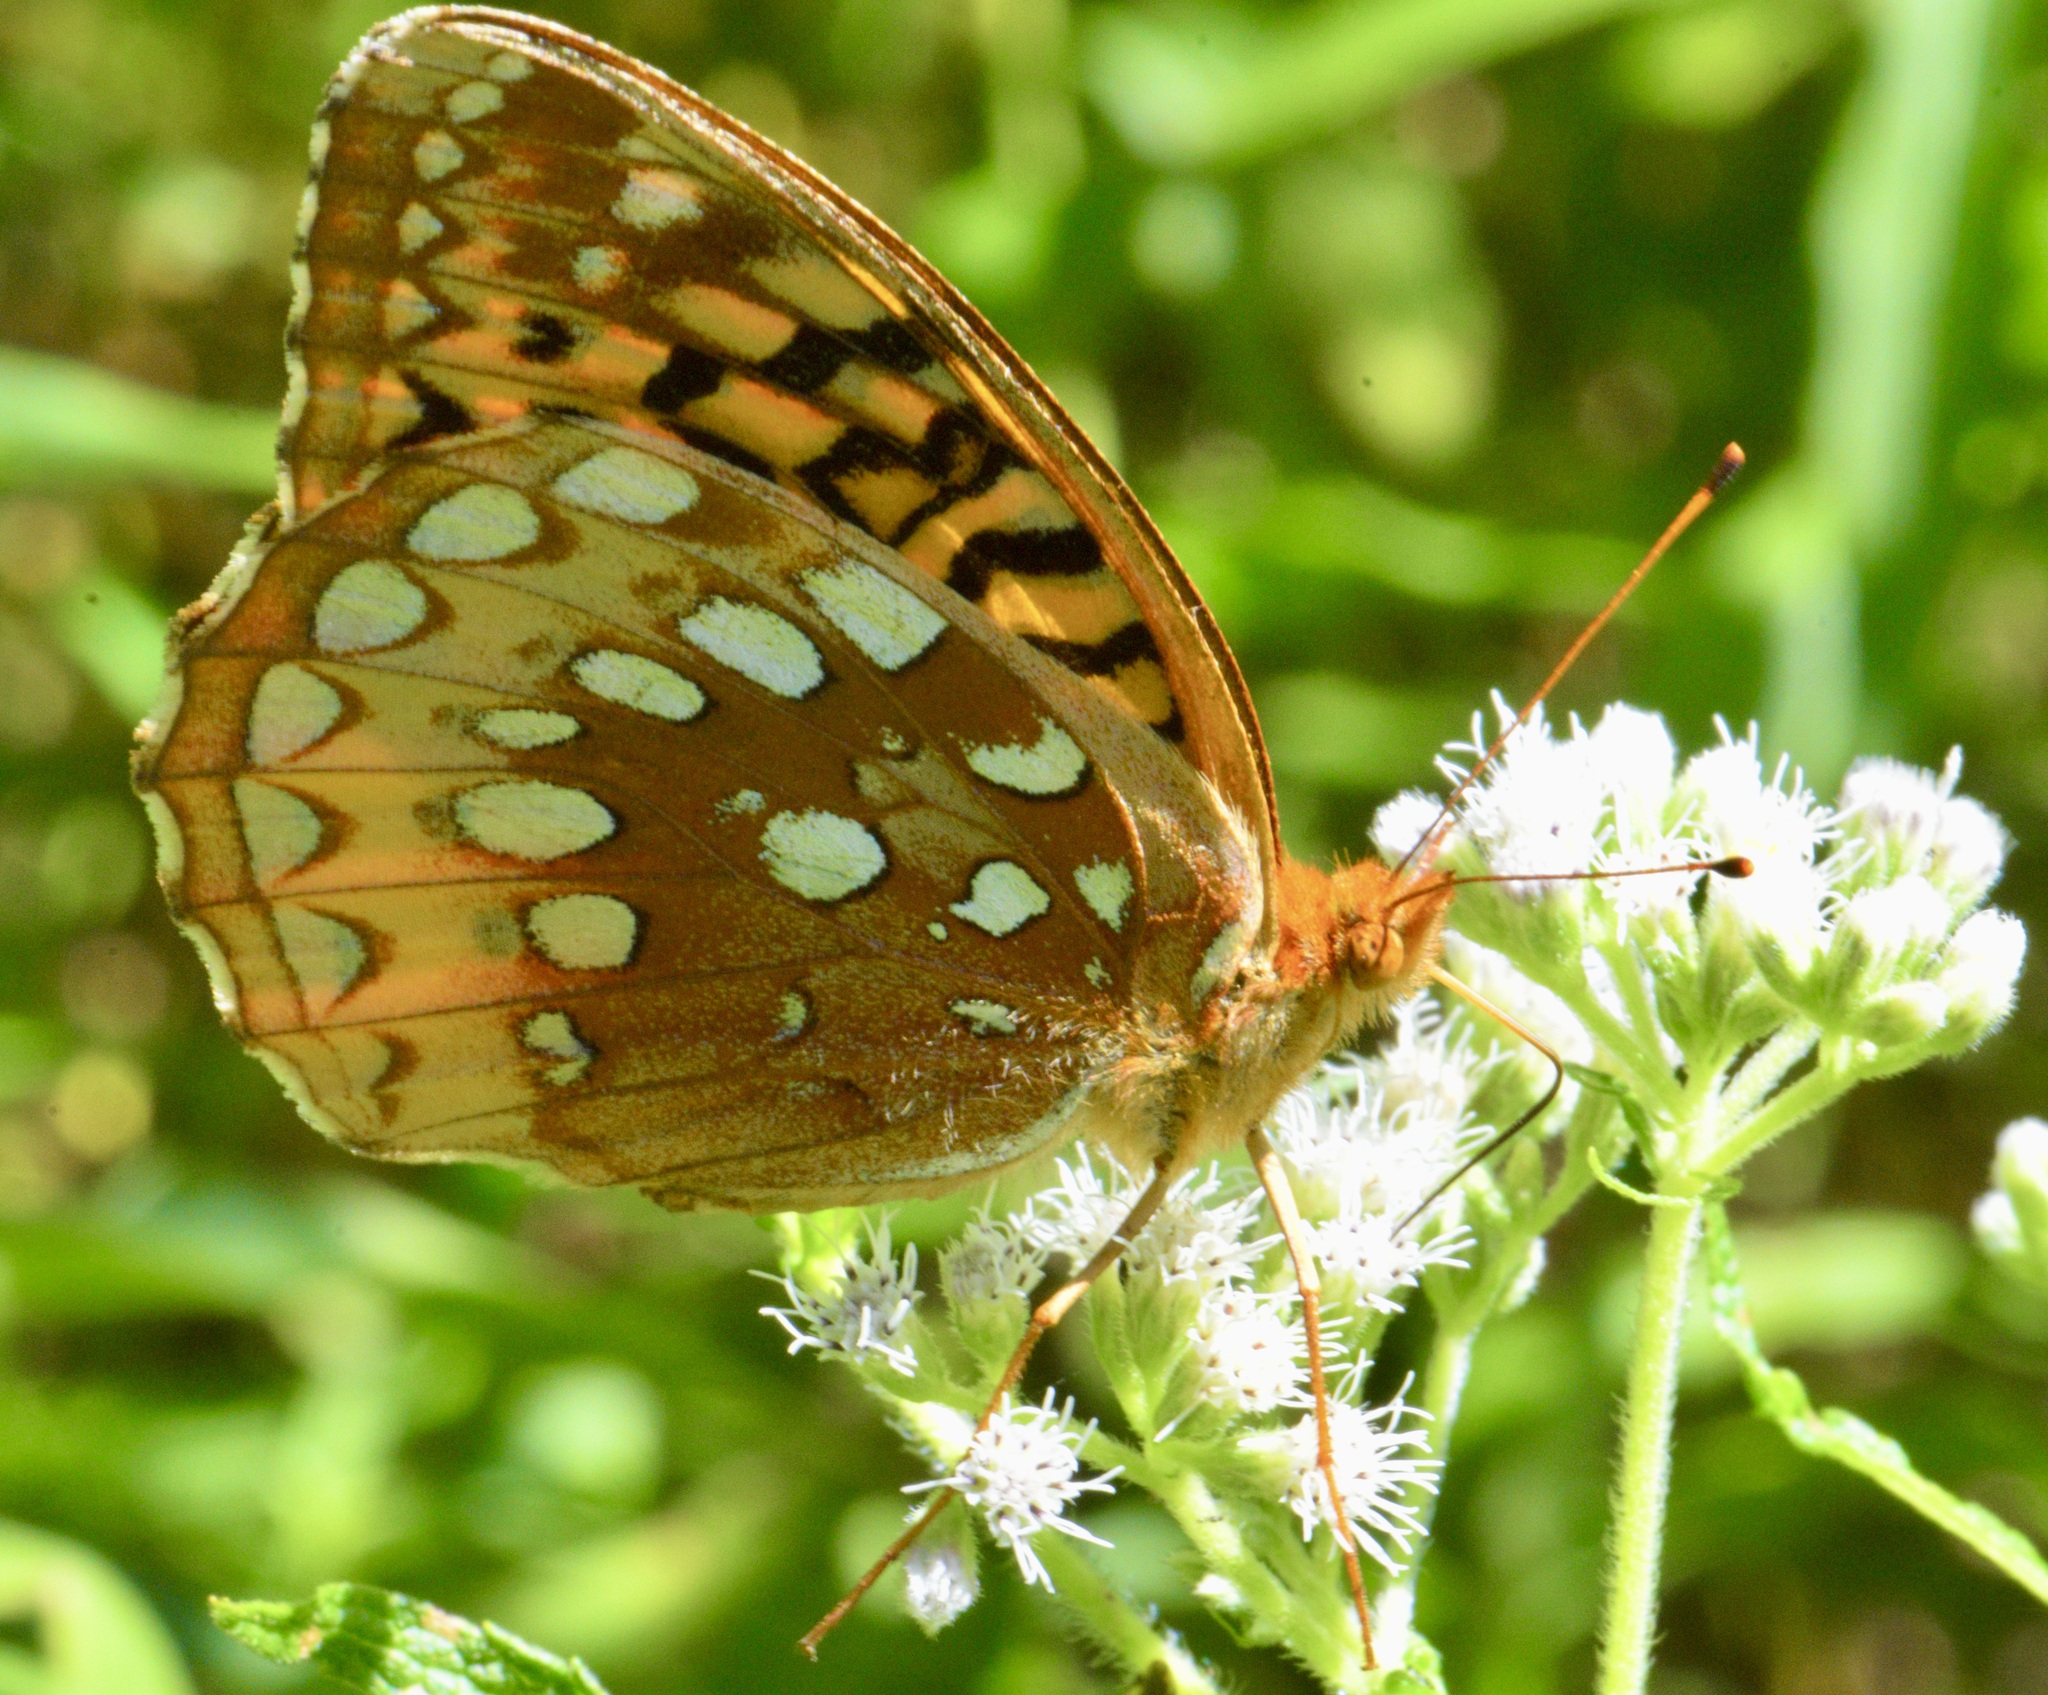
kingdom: Animalia
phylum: Arthropoda
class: Insecta
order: Lepidoptera
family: Nymphalidae
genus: Speyeria
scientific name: Speyeria cybele
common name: Great spangled fritillary
